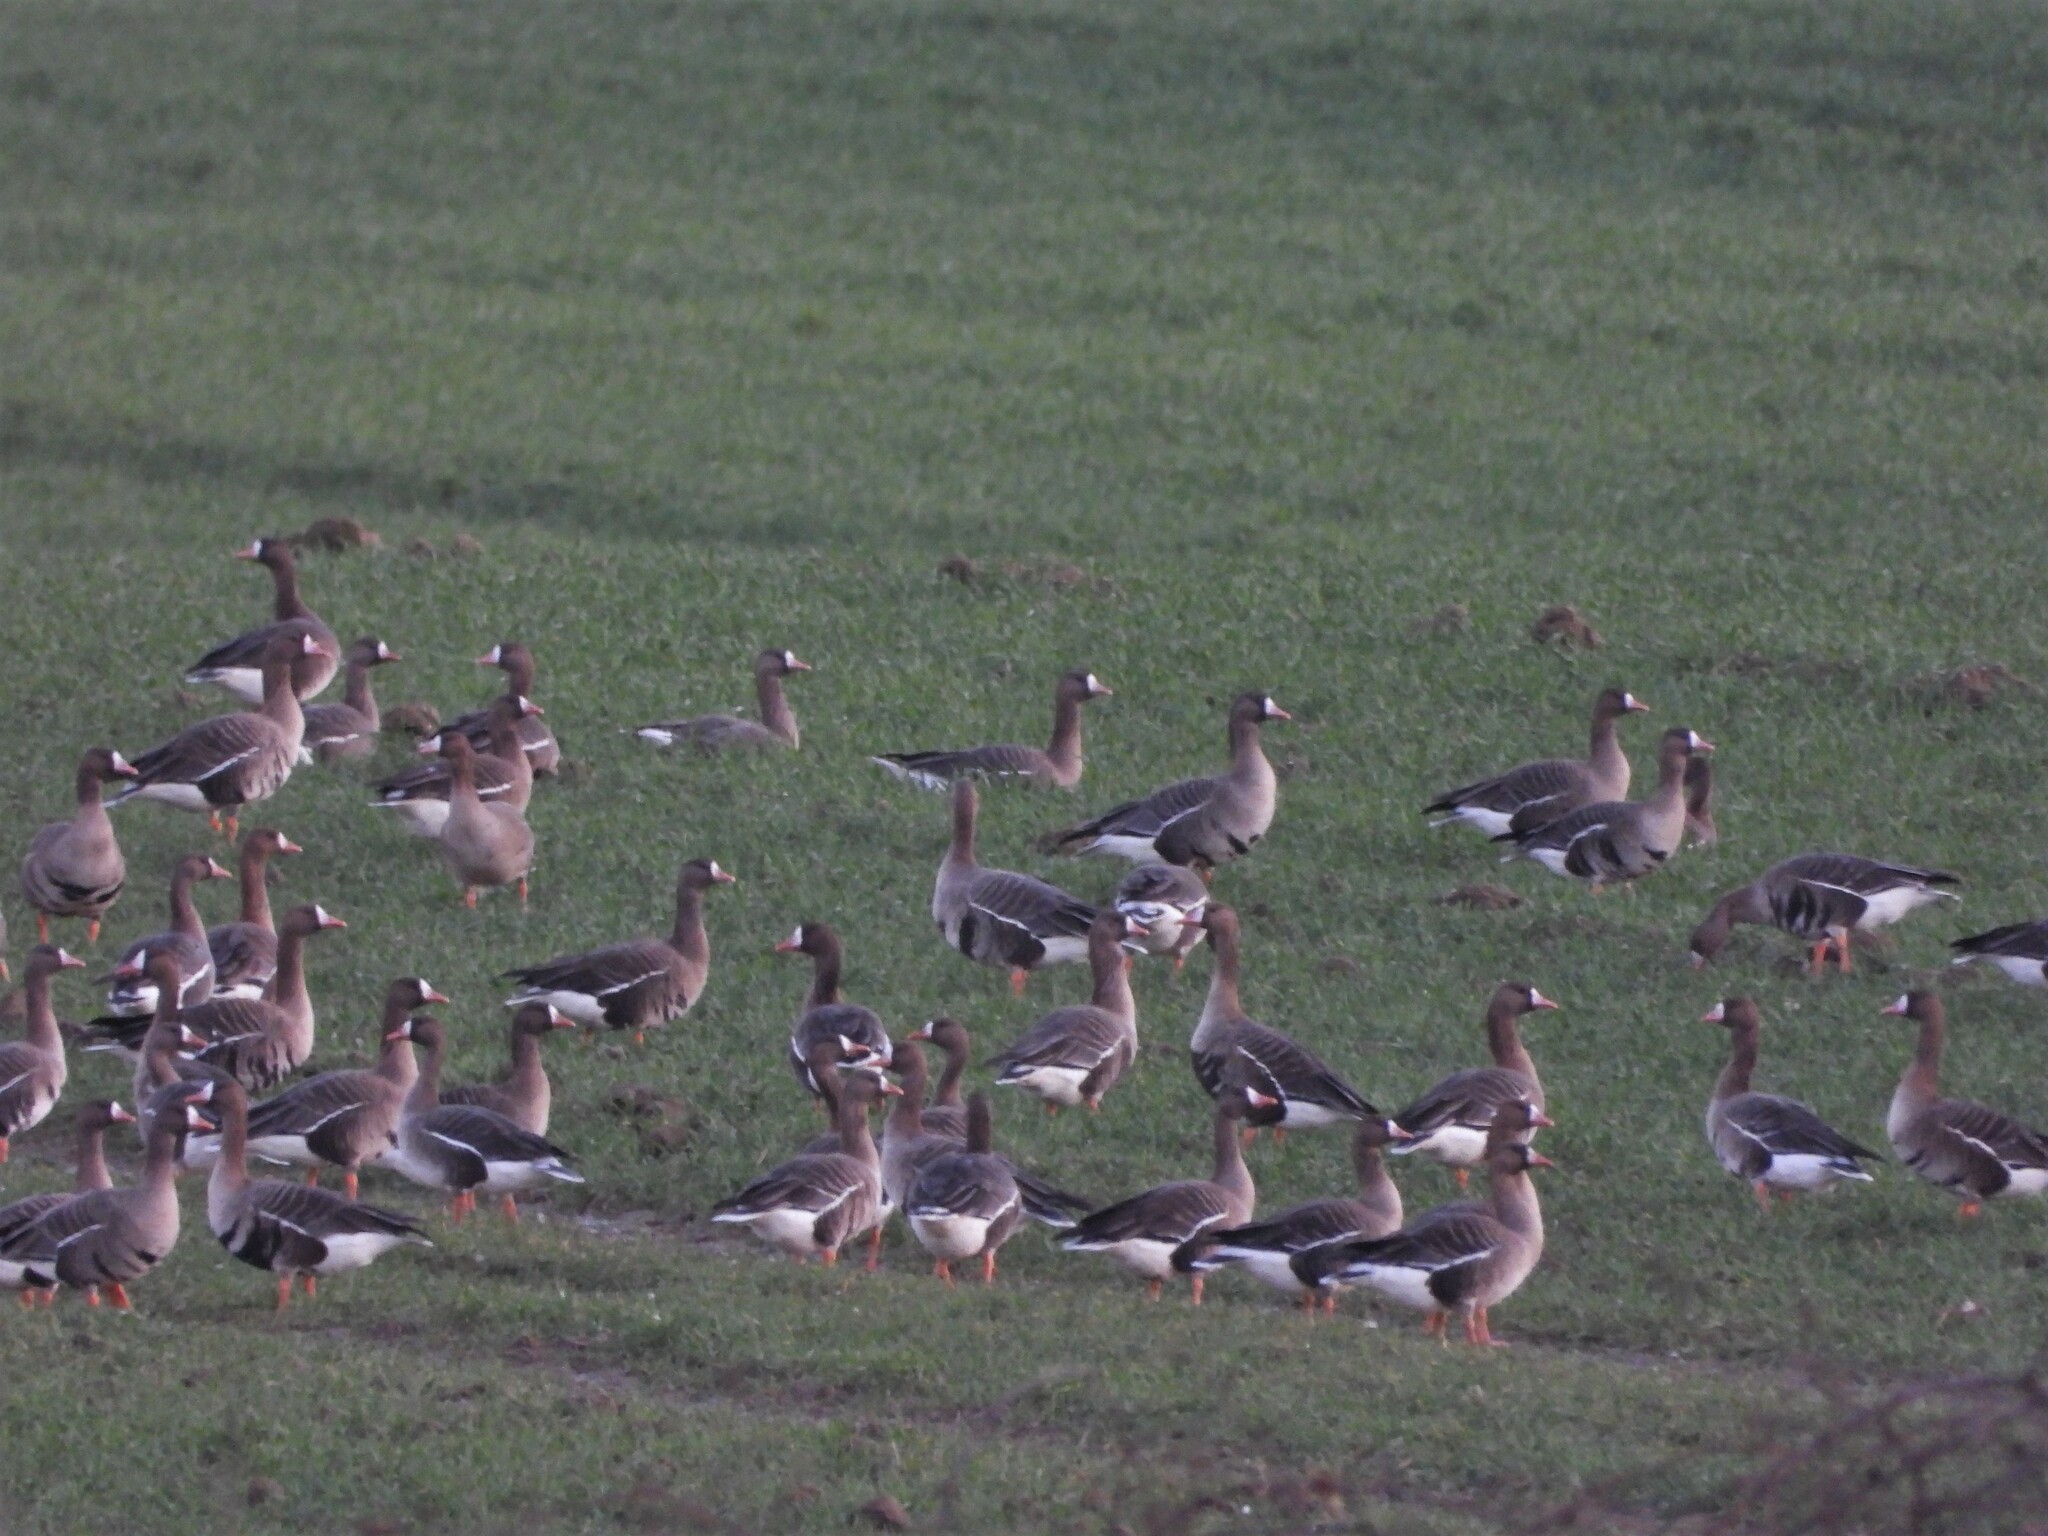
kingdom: Animalia
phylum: Chordata
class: Aves
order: Anseriformes
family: Anatidae
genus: Anser
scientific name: Anser albifrons
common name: Greater white-fronted goose
